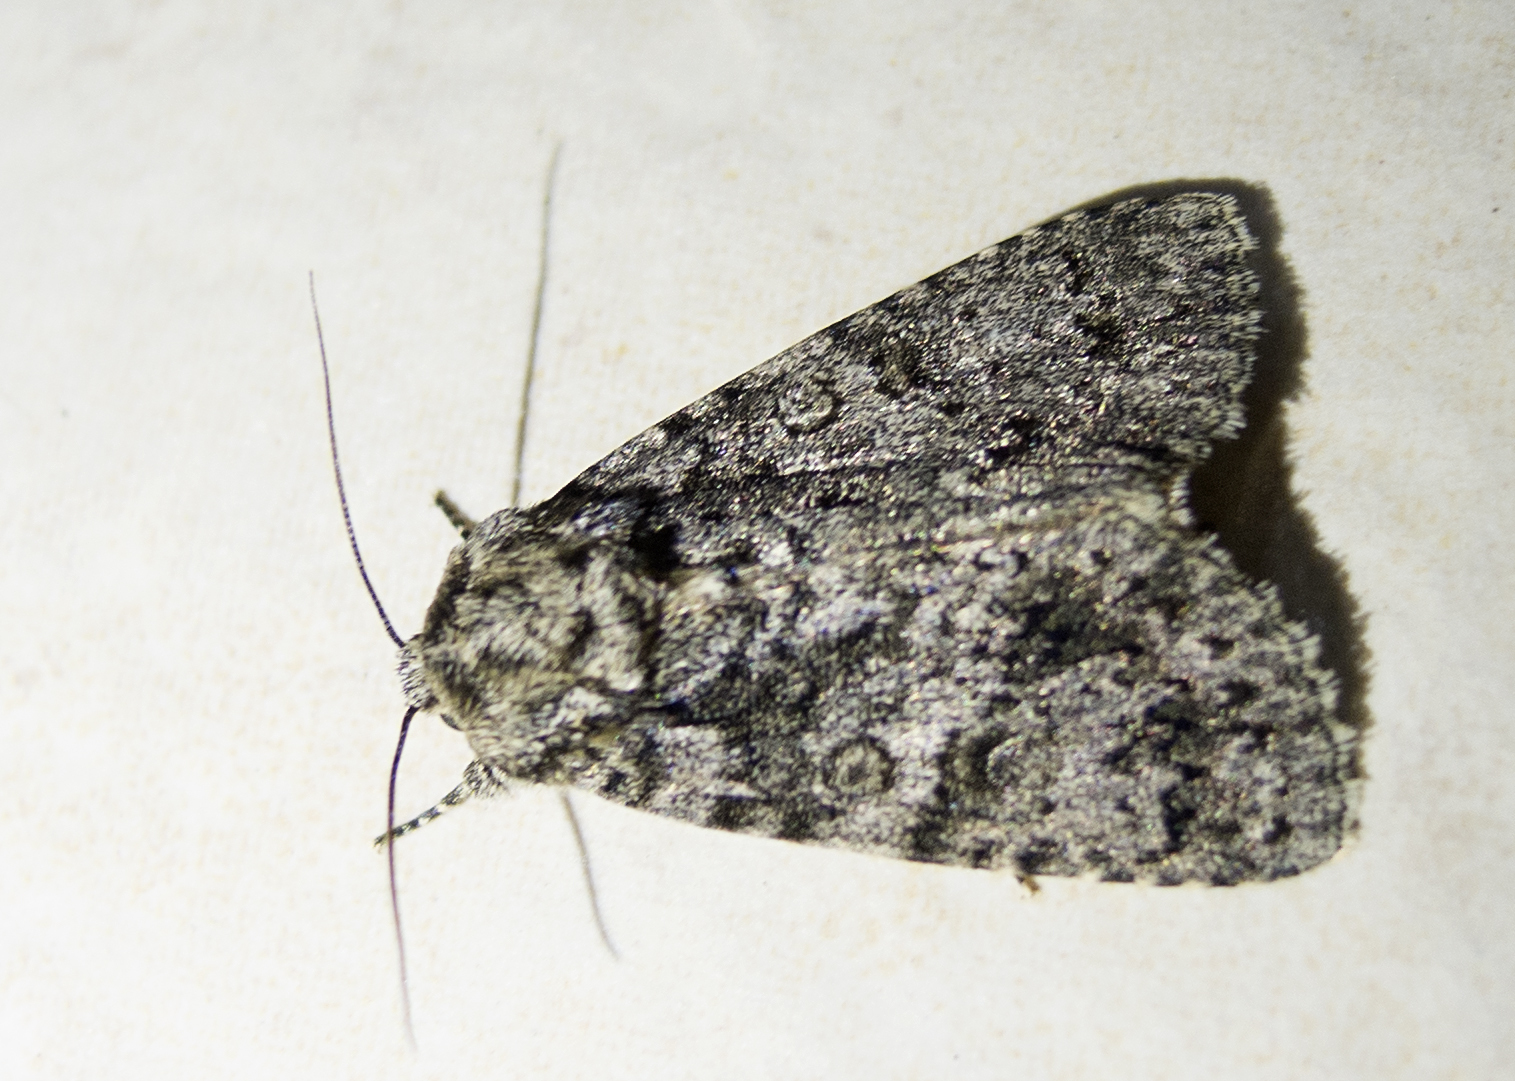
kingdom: Animalia
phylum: Arthropoda
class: Insecta
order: Lepidoptera
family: Noctuidae
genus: Acronicta
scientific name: Acronicta rumicis
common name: Knot grass
